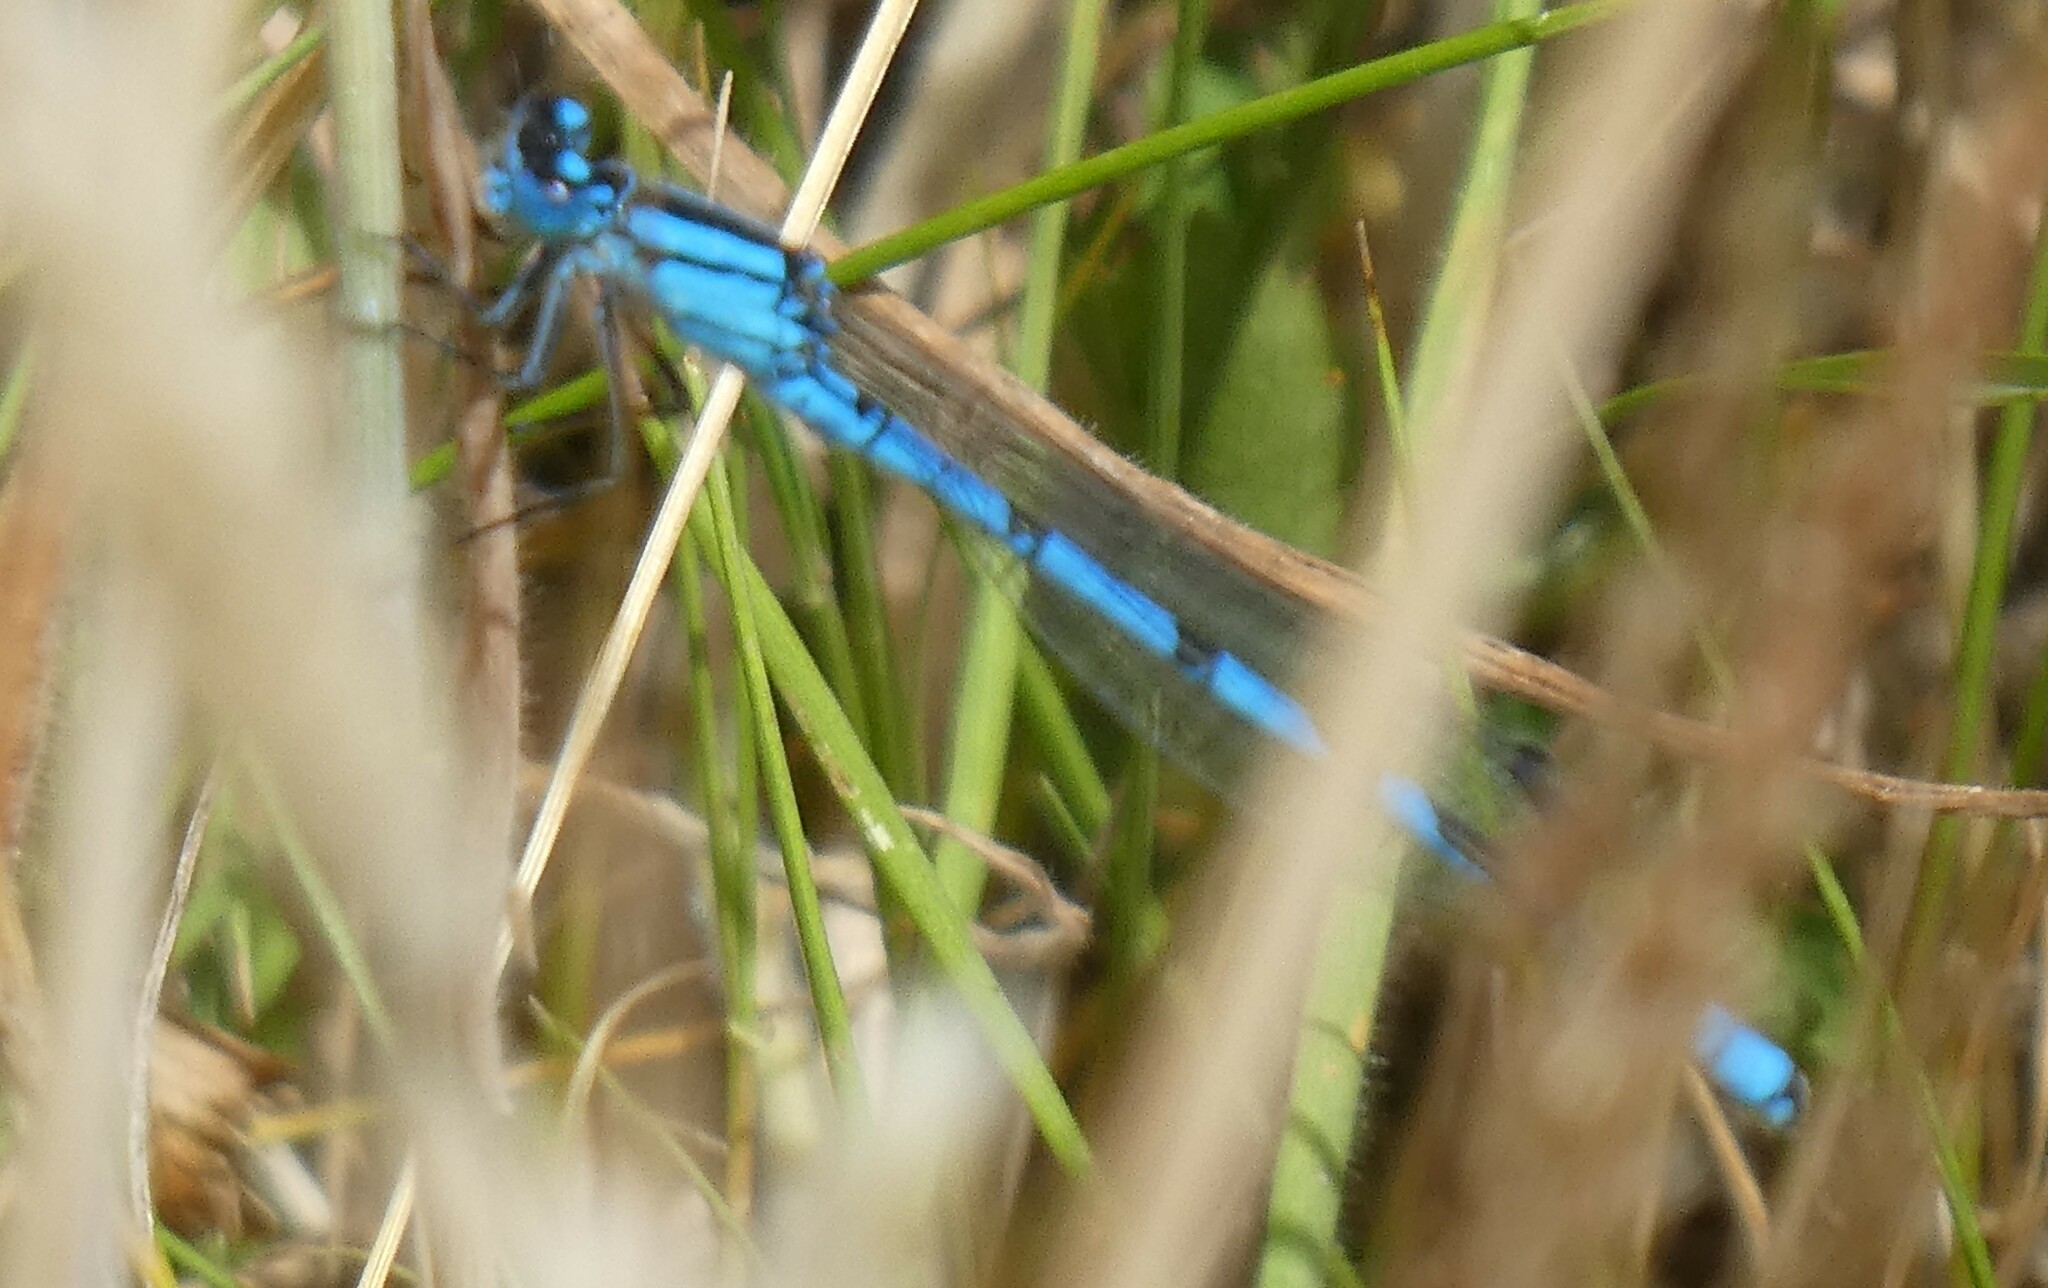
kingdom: Animalia
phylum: Arthropoda
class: Insecta
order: Odonata
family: Coenagrionidae
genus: Enallagma
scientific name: Enallagma cyathigerum
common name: Common blue damselfly
